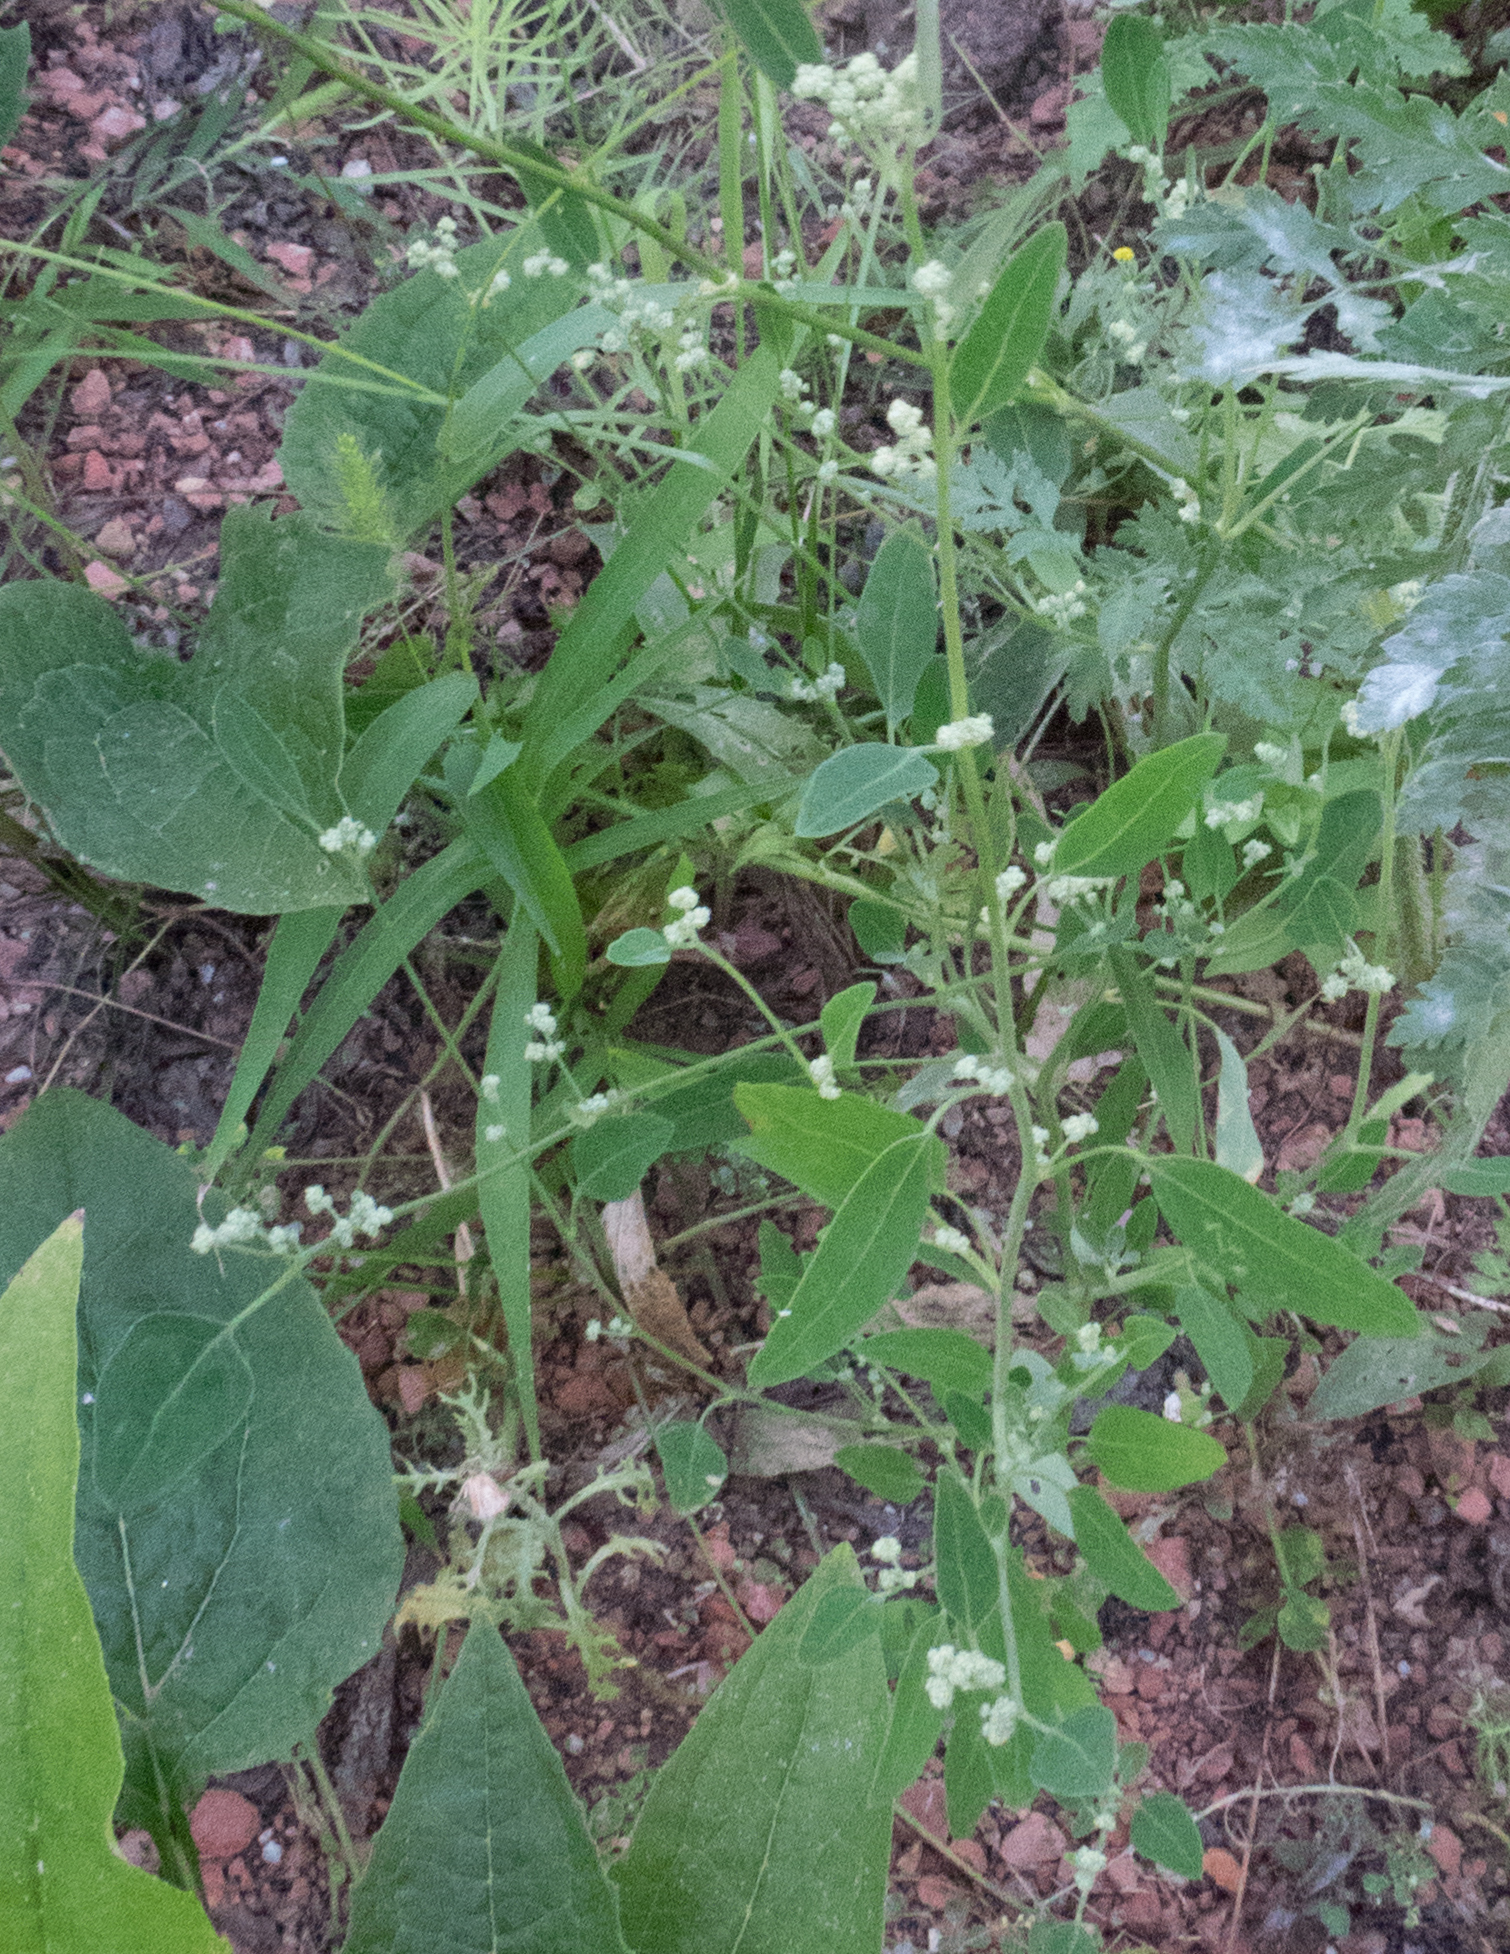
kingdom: Plantae
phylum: Tracheophyta
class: Magnoliopsida
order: Caryophyllales
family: Amaranthaceae
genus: Chenopodium
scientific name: Chenopodium album
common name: Fat-hen
